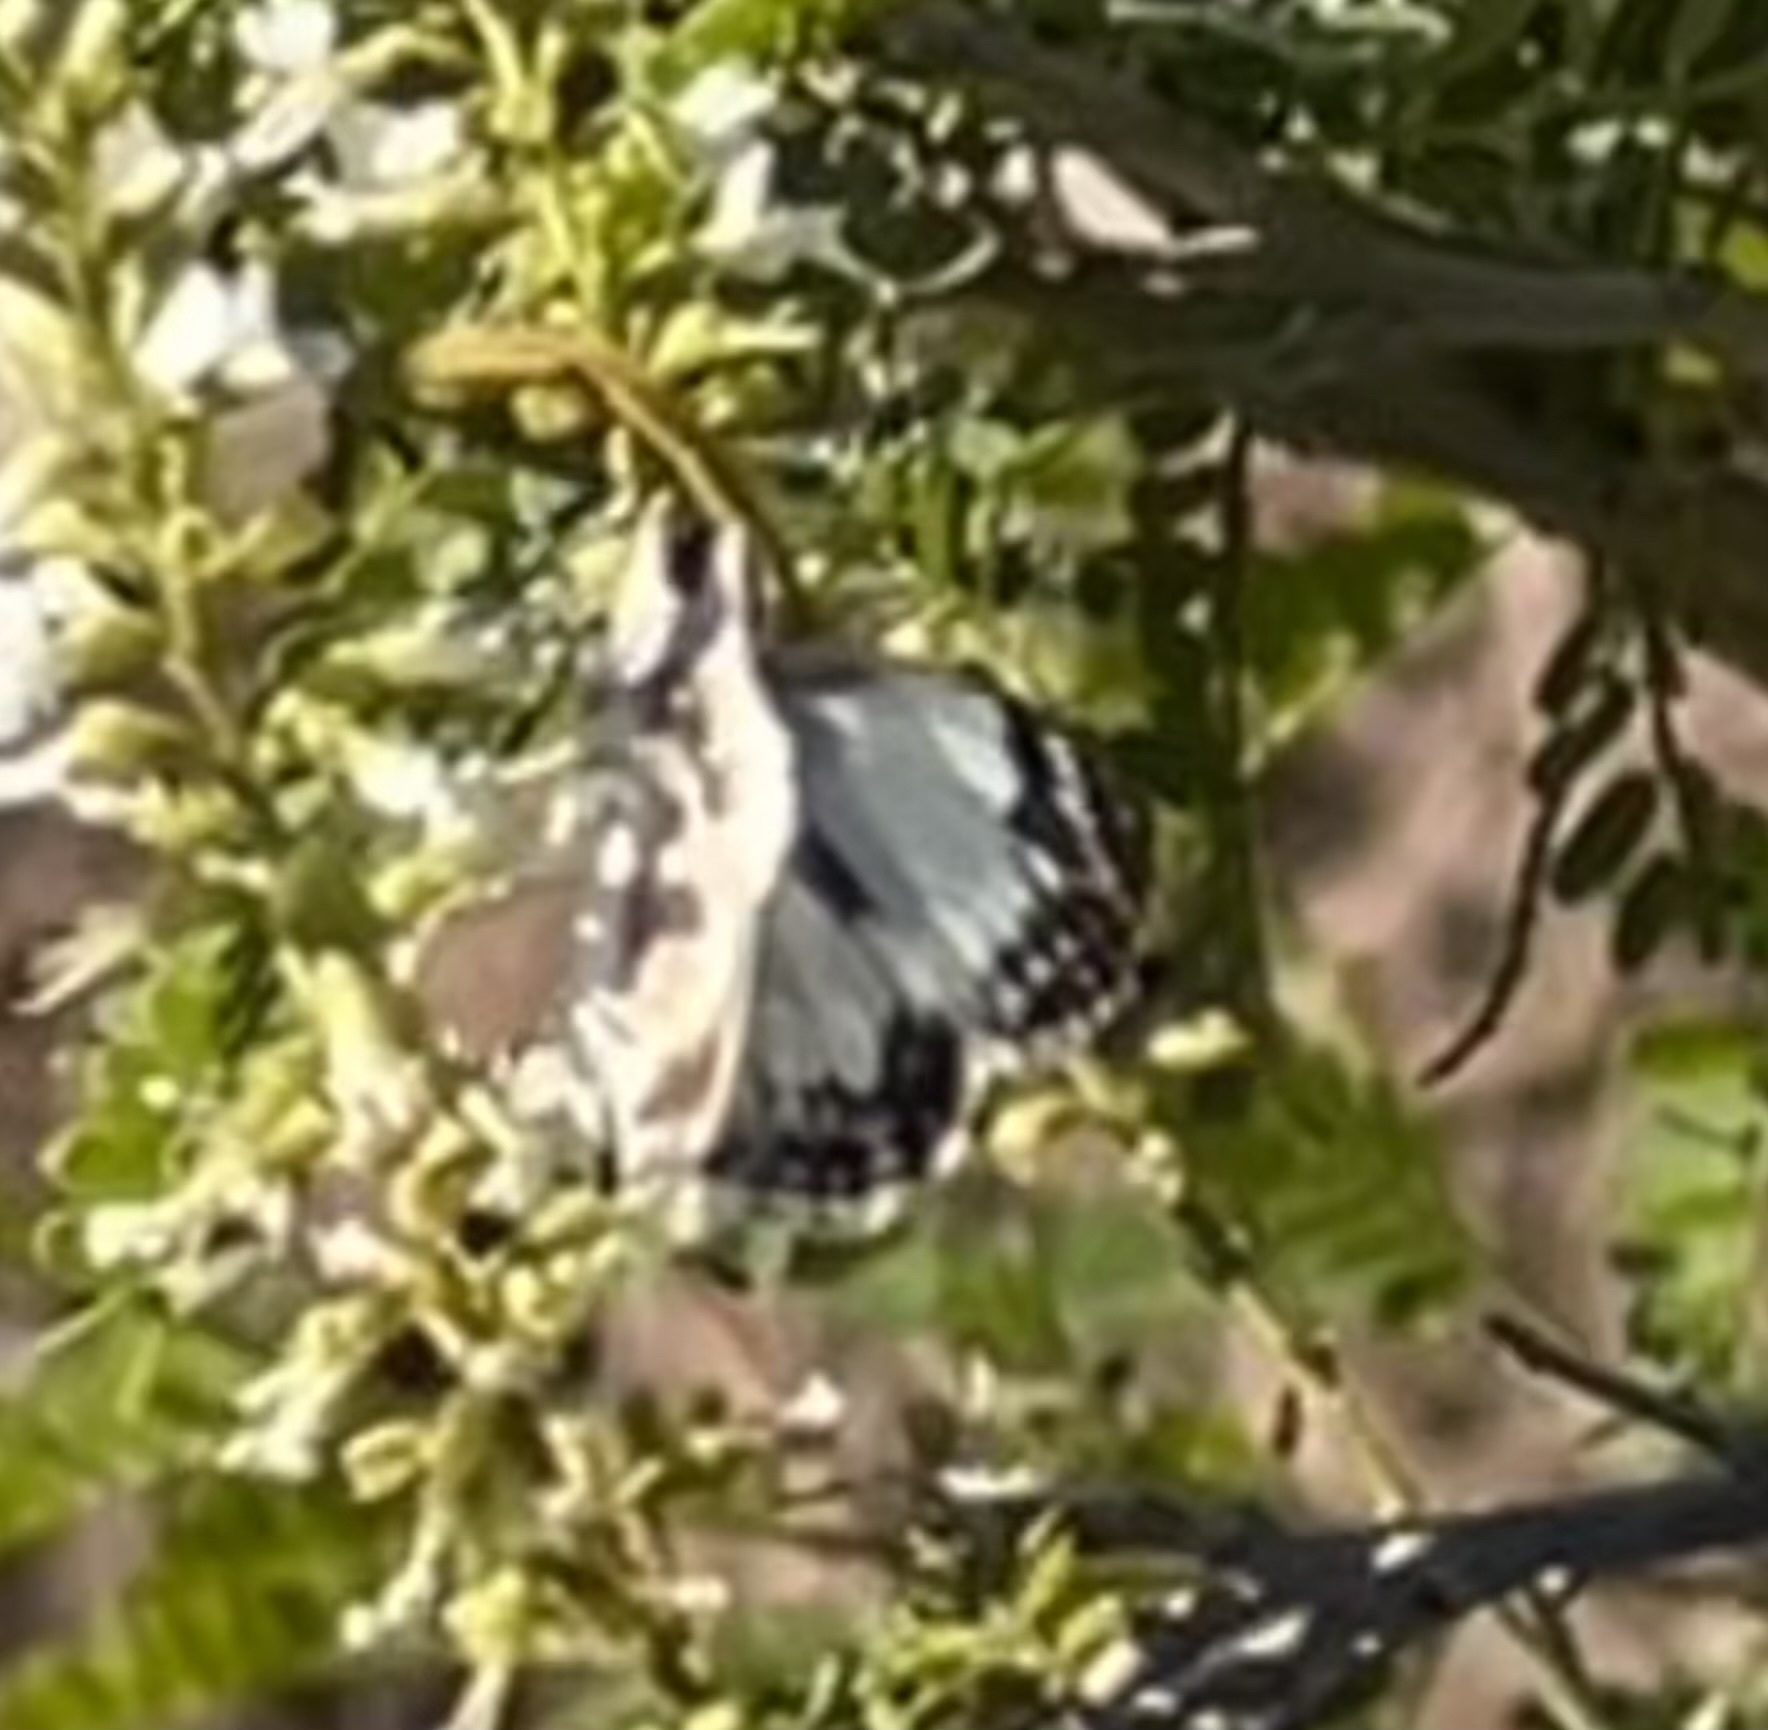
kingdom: Animalia
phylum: Arthropoda
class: Insecta
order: Lepidoptera
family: Hesperiidae
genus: Heliopetes
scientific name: Heliopetes laviana
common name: Laviana white-skipper
